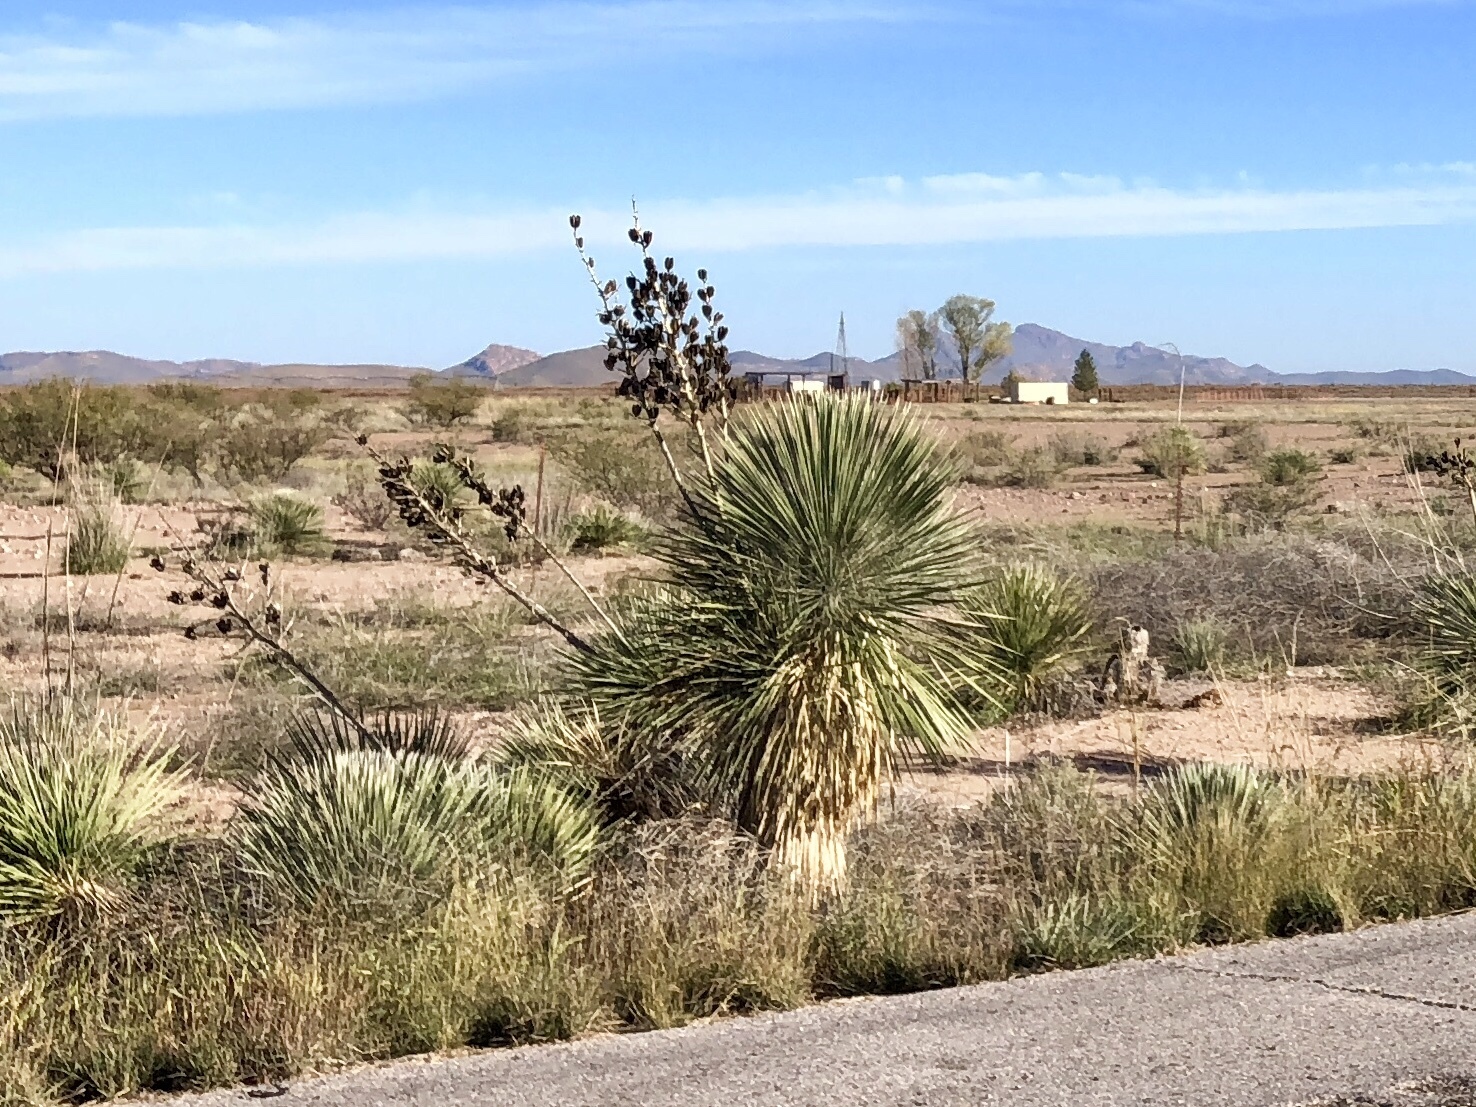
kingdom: Plantae
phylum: Tracheophyta
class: Liliopsida
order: Asparagales
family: Asparagaceae
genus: Yucca
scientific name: Yucca elata
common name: Palmella
